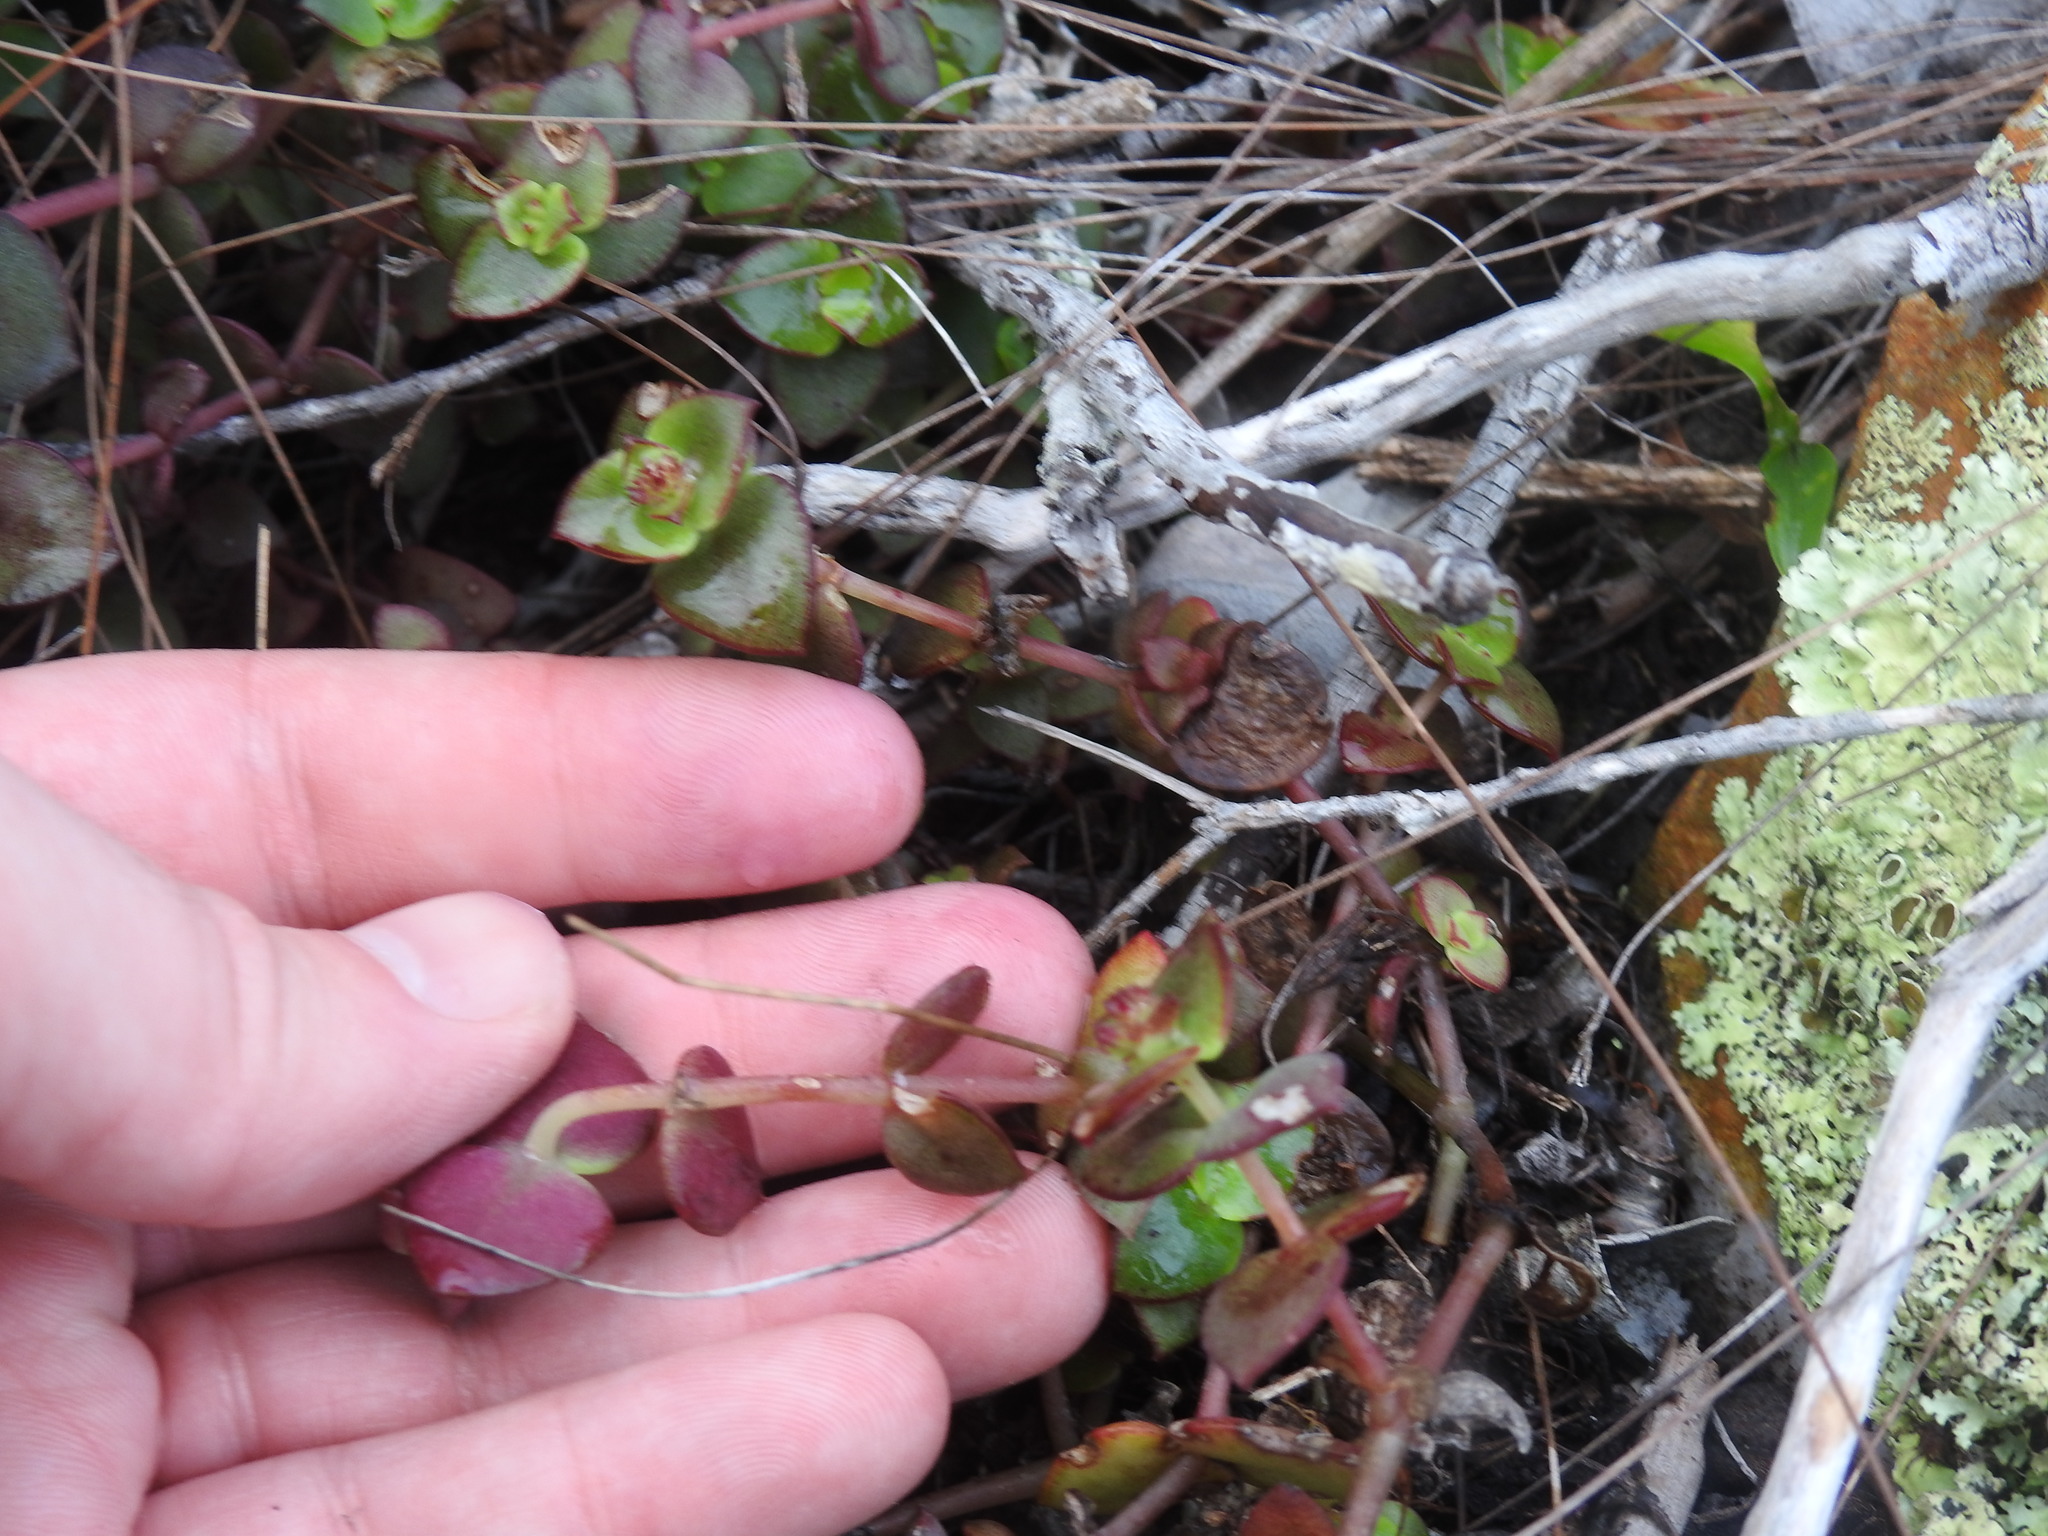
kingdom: Plantae
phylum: Tracheophyta
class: Magnoliopsida
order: Saxifragales
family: Crassulaceae
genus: Crassula
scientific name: Crassula pellucida
